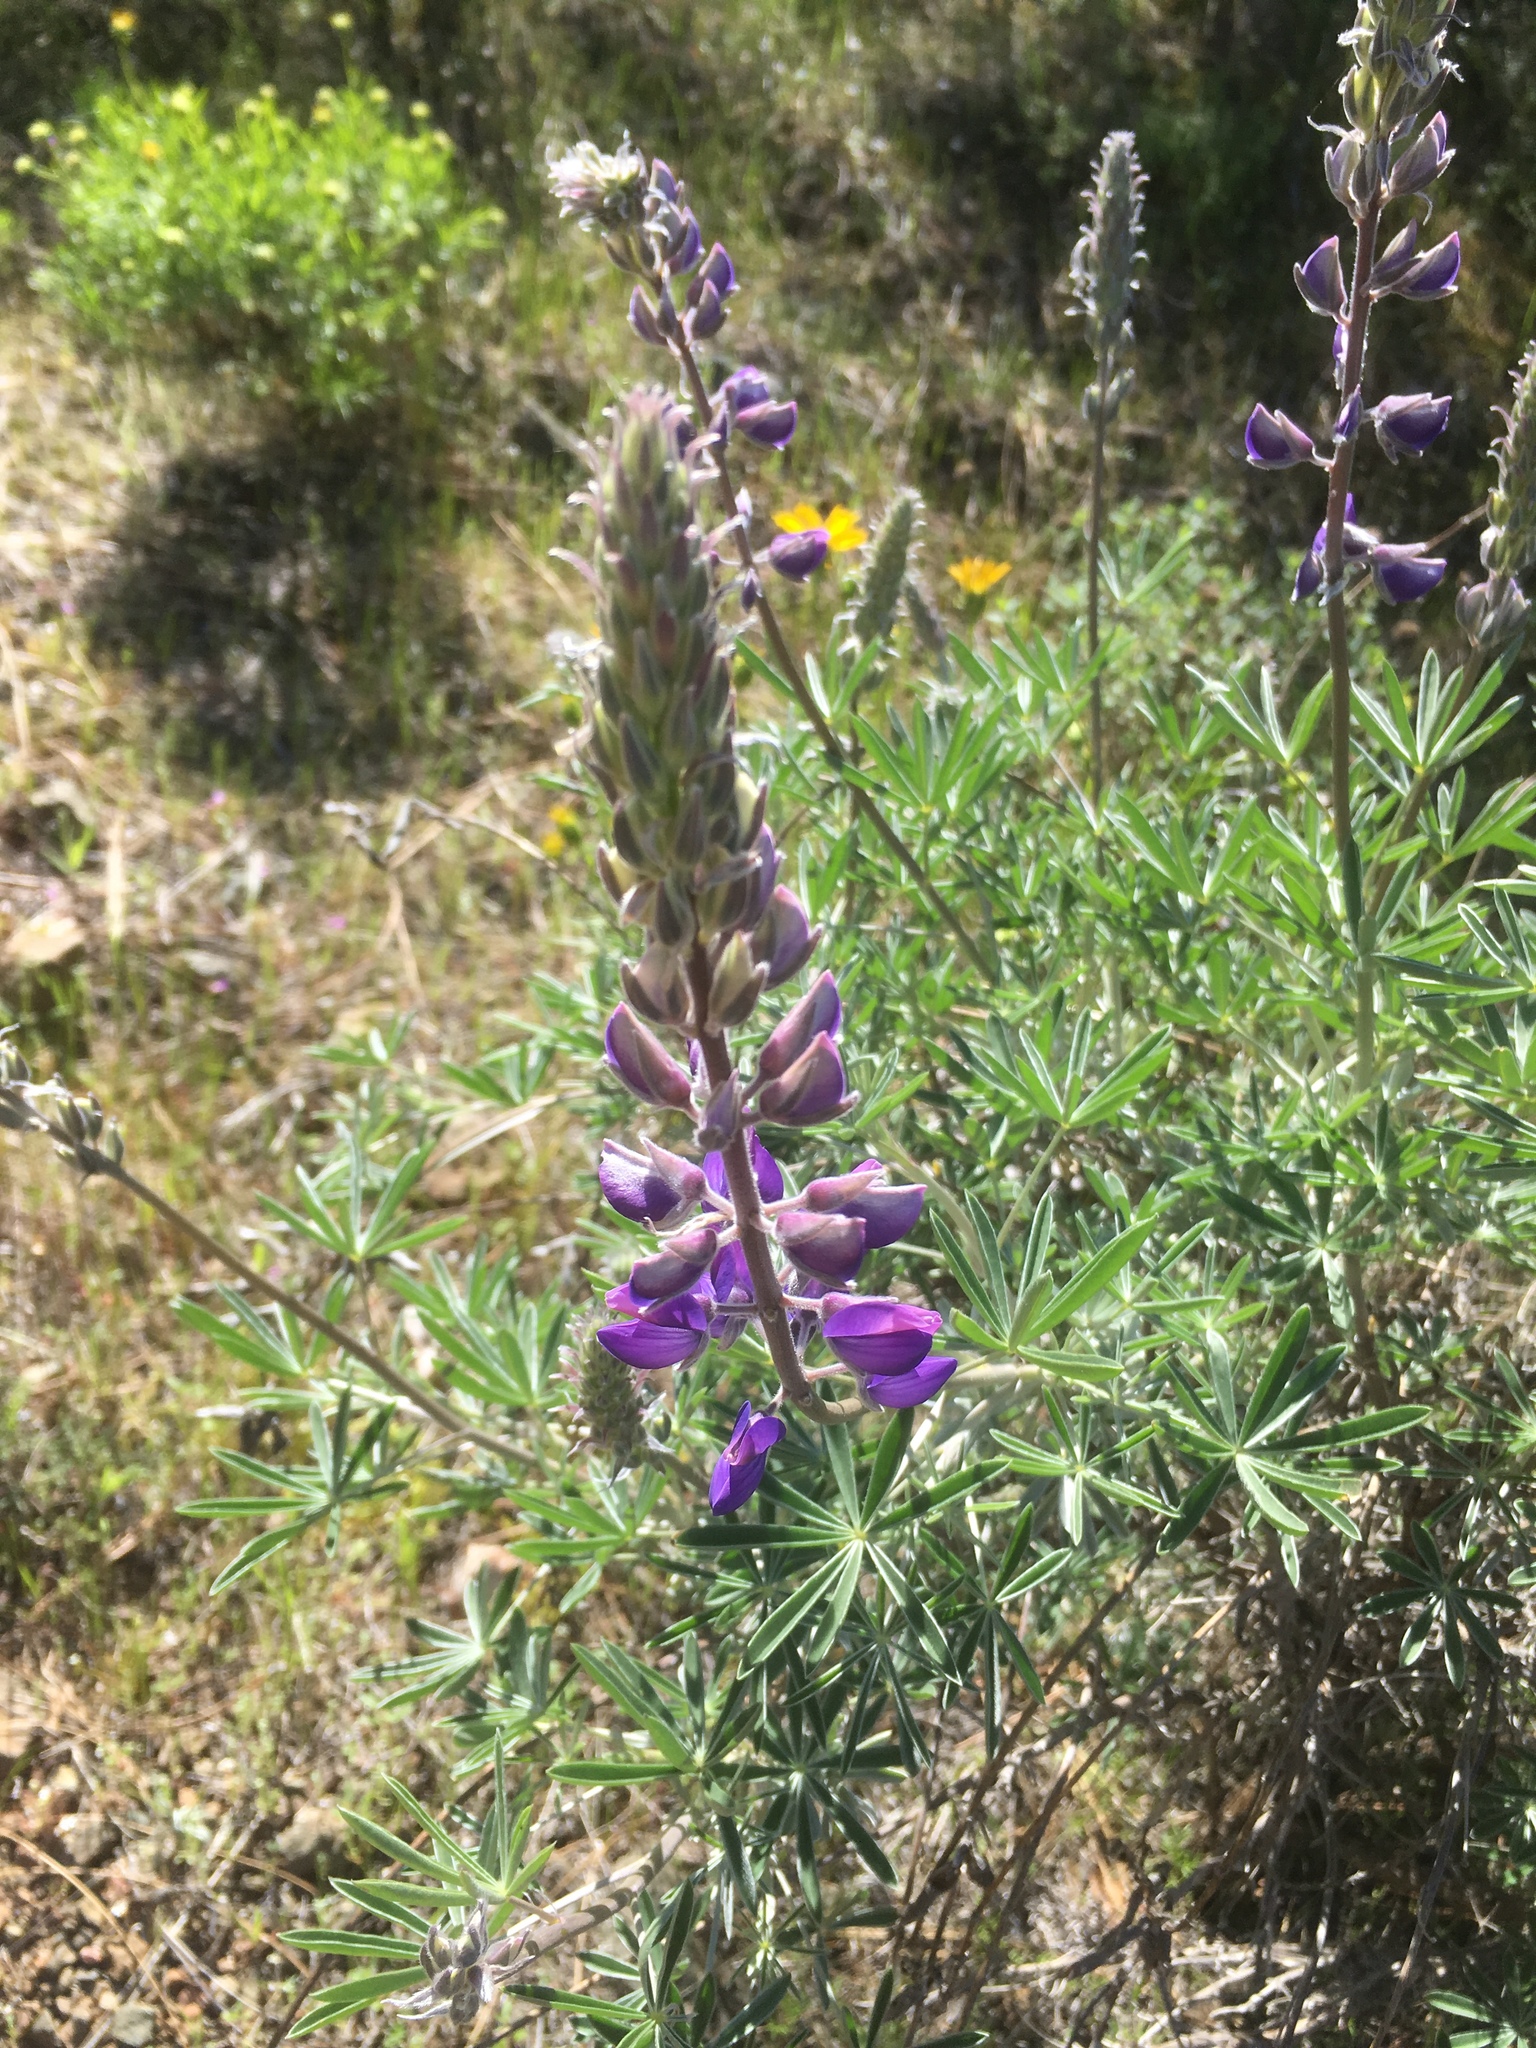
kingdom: Plantae
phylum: Tracheophyta
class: Magnoliopsida
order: Fabales
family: Fabaceae
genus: Lupinus
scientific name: Lupinus albifrons
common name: Foothill lupine
